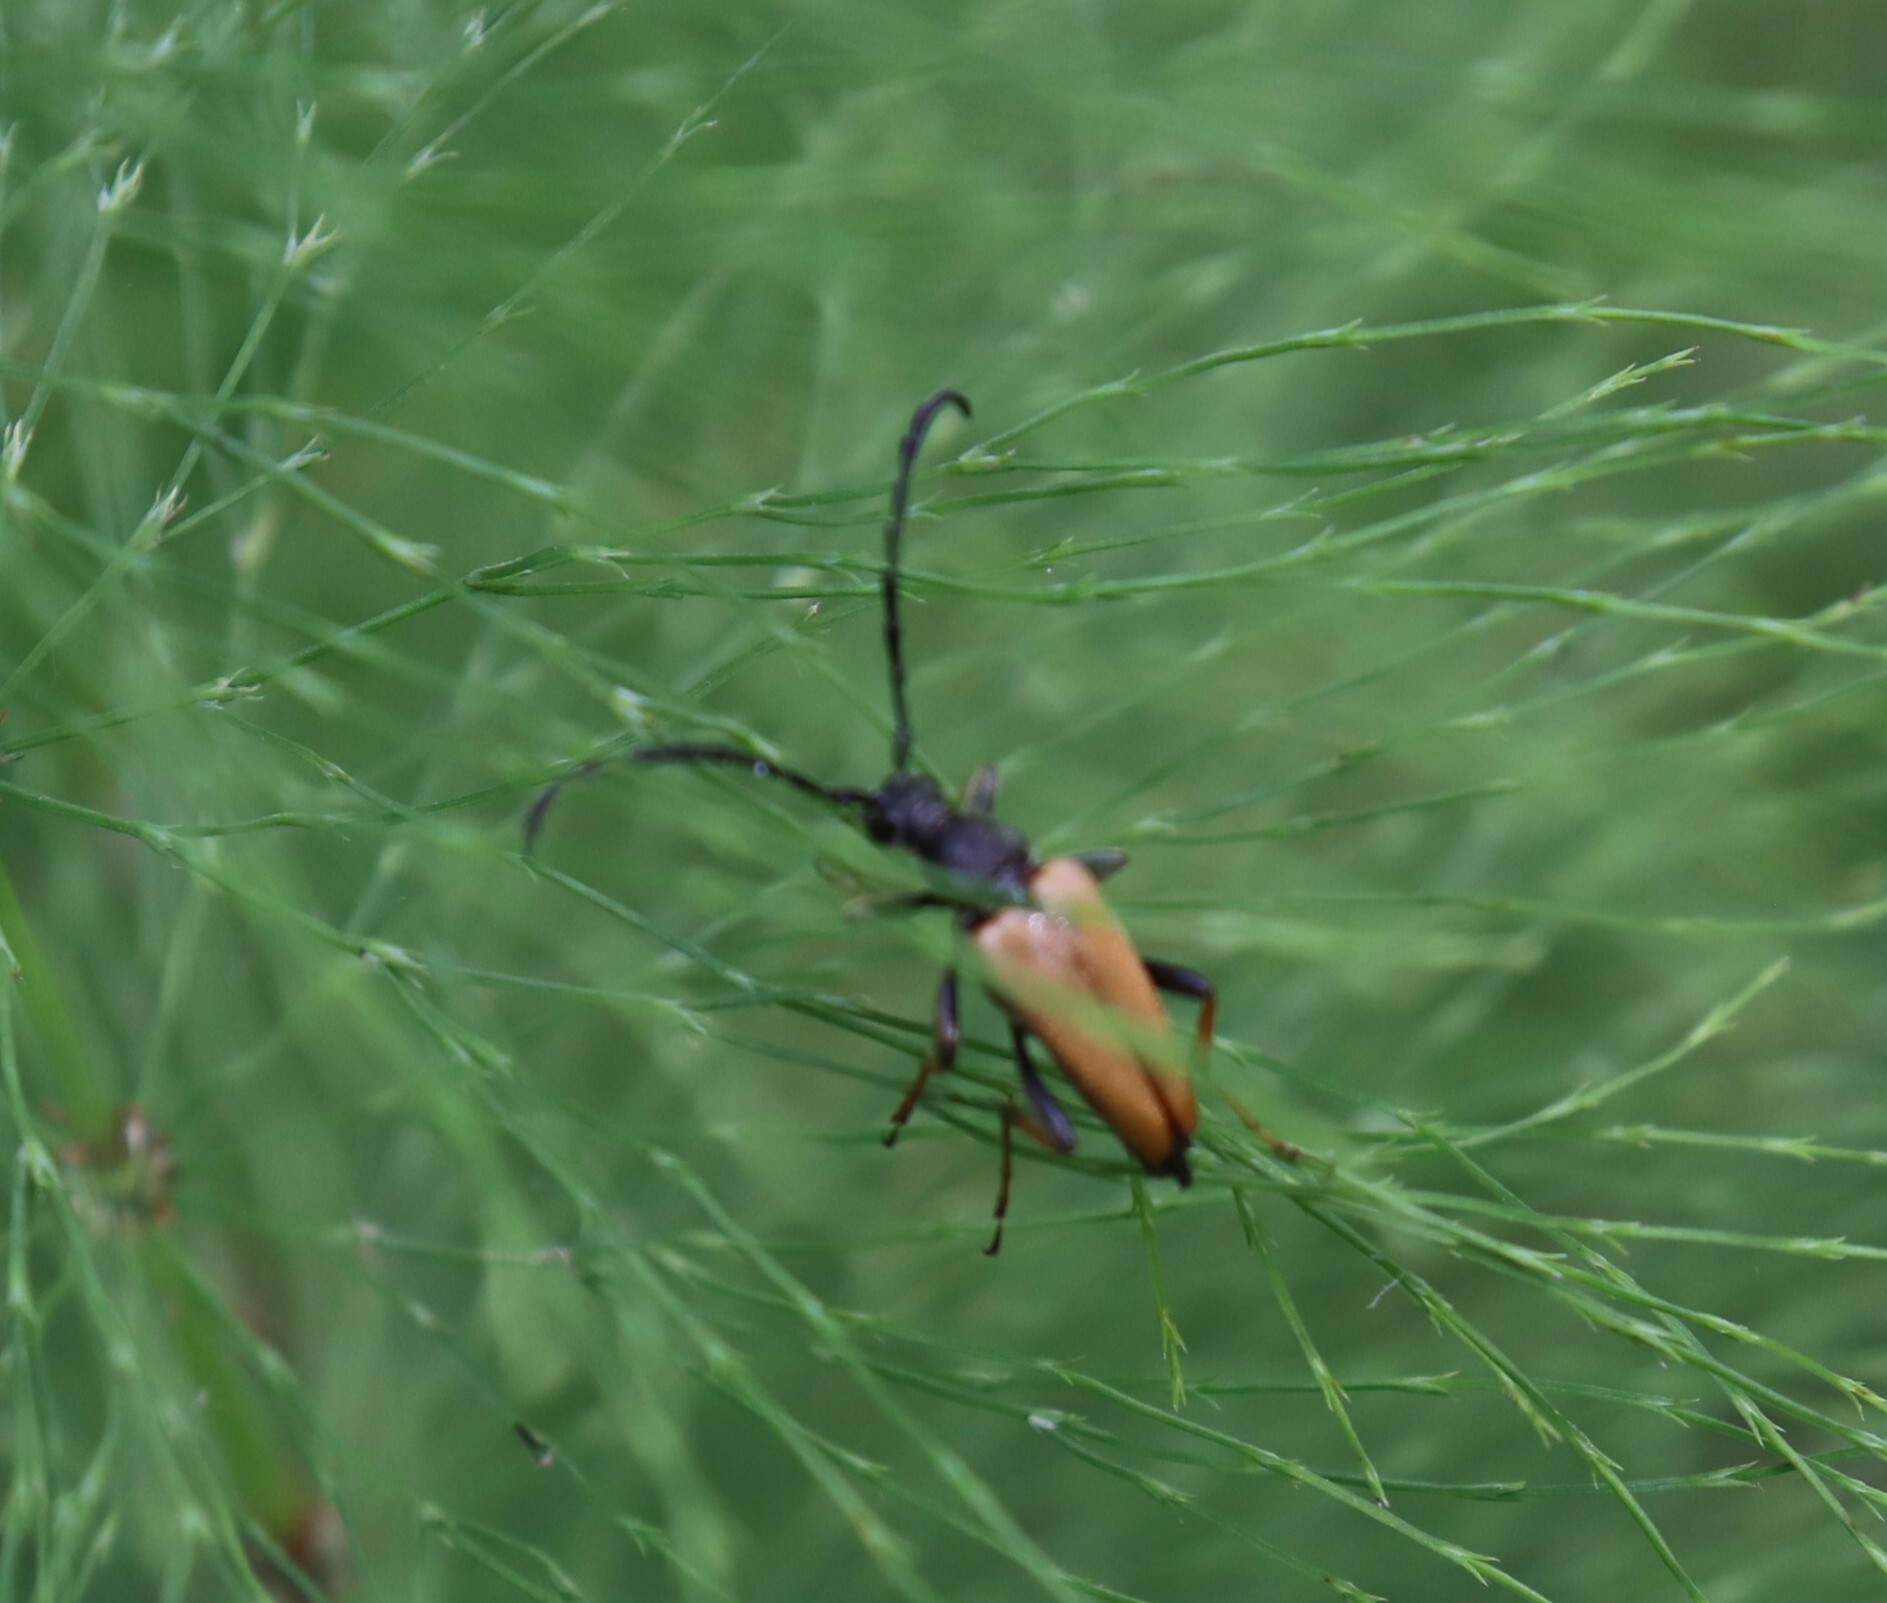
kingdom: Animalia
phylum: Arthropoda
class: Insecta
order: Coleoptera
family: Cerambycidae
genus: Stictoleptura
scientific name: Stictoleptura rubra
